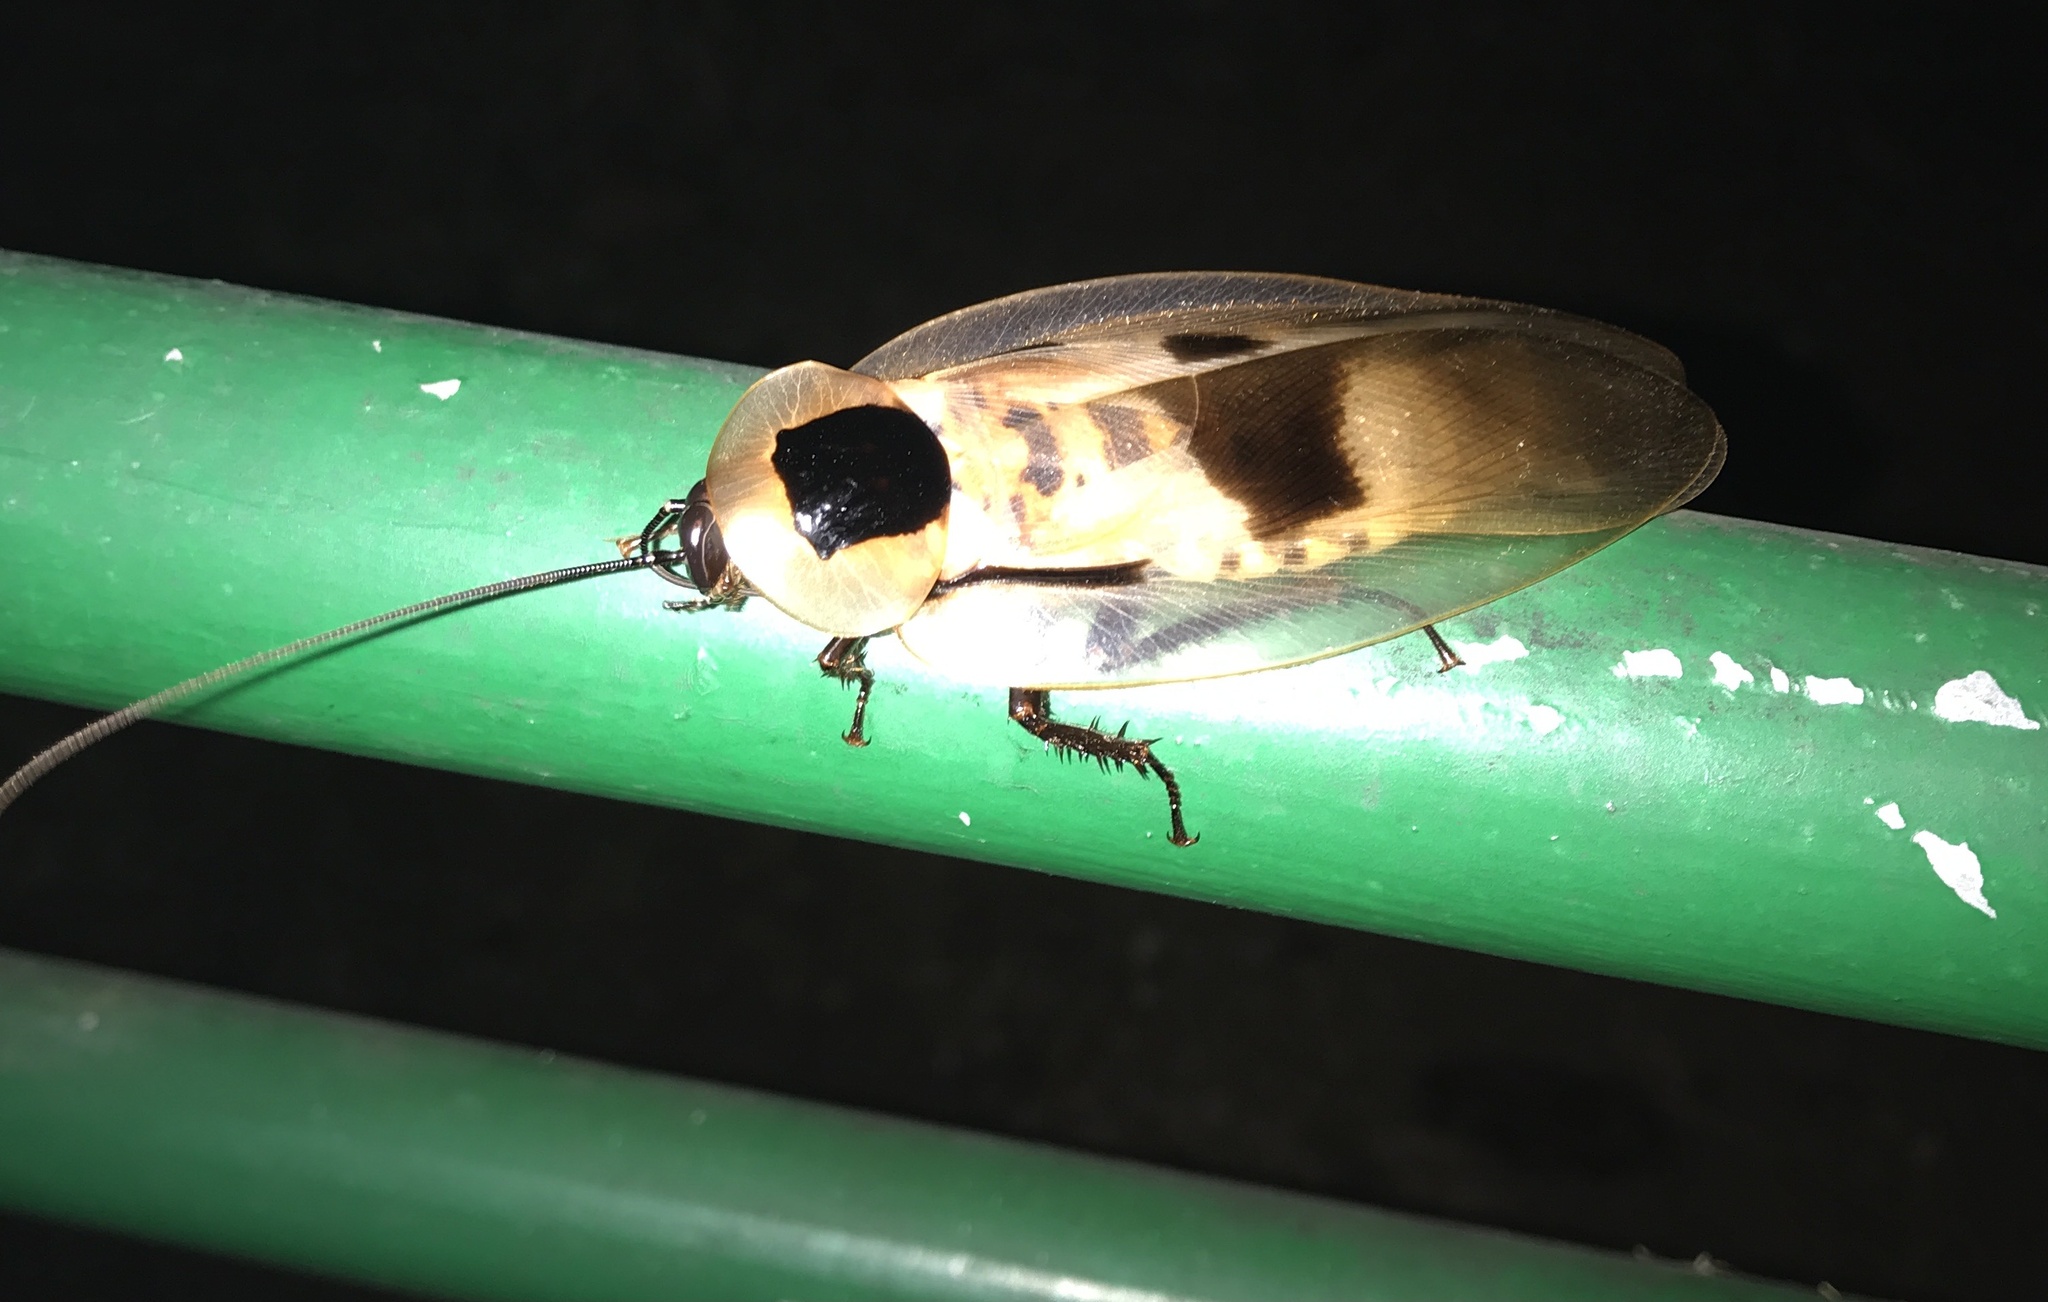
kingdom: Animalia
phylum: Arthropoda
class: Insecta
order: Blattodea
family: Blaberidae
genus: Blaberus
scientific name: Blaberus giganteus
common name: Giant cave cockroach
